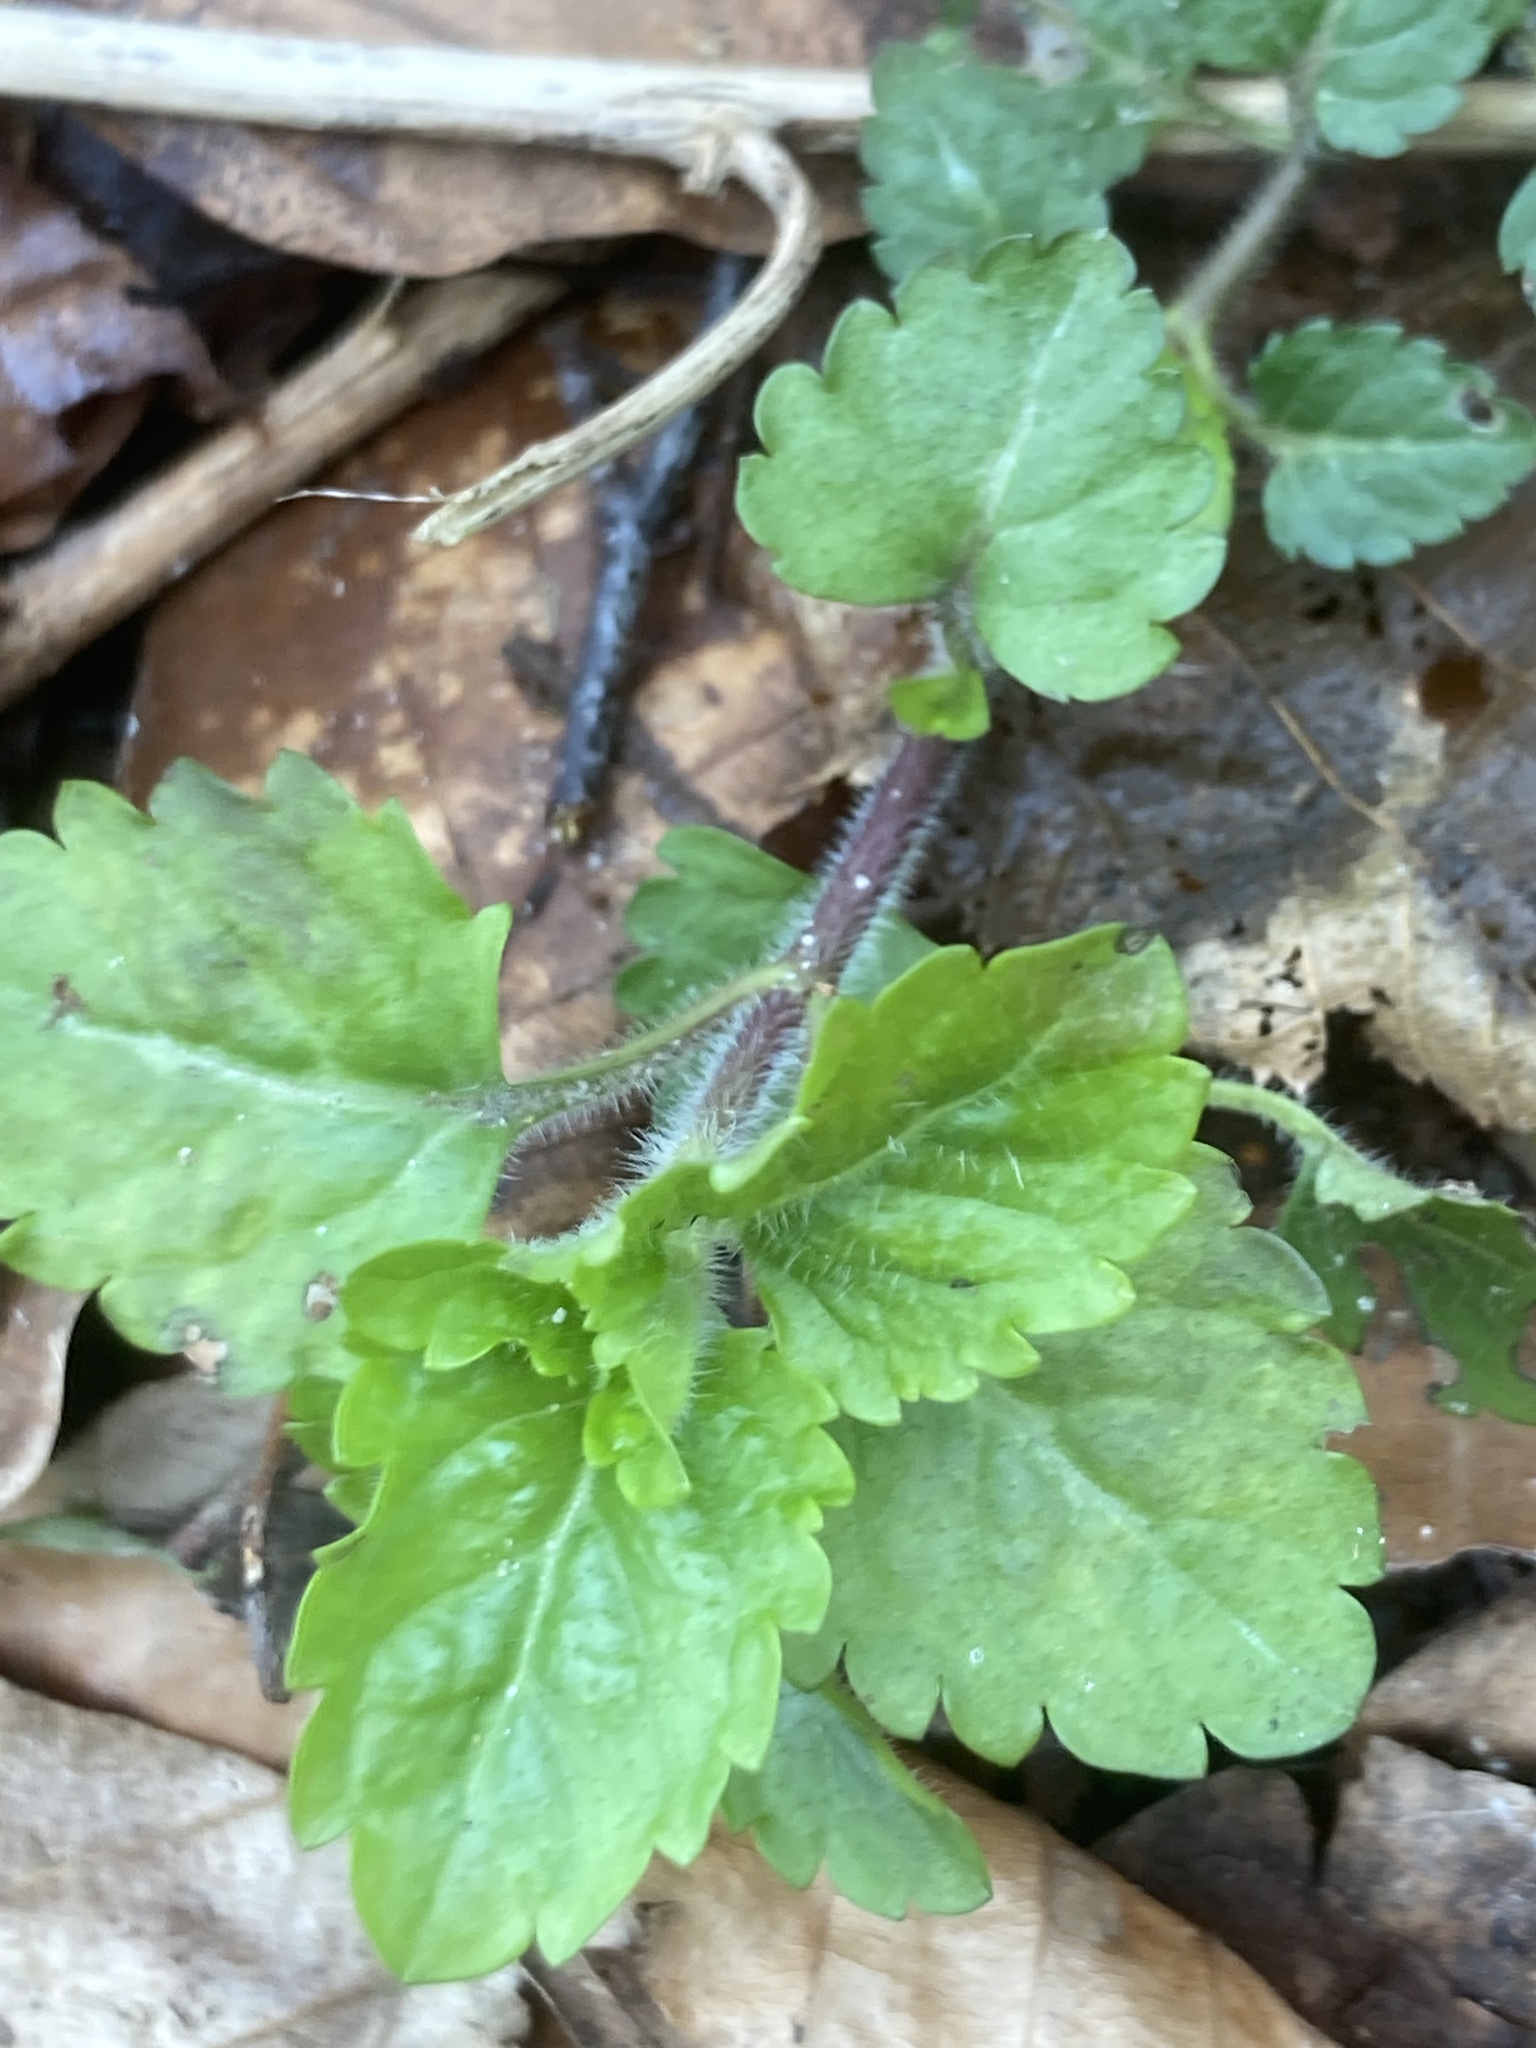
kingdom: Plantae
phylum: Tracheophyta
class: Magnoliopsida
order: Lamiales
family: Plantaginaceae
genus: Veronica
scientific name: Veronica montana
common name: Wood speedwell
